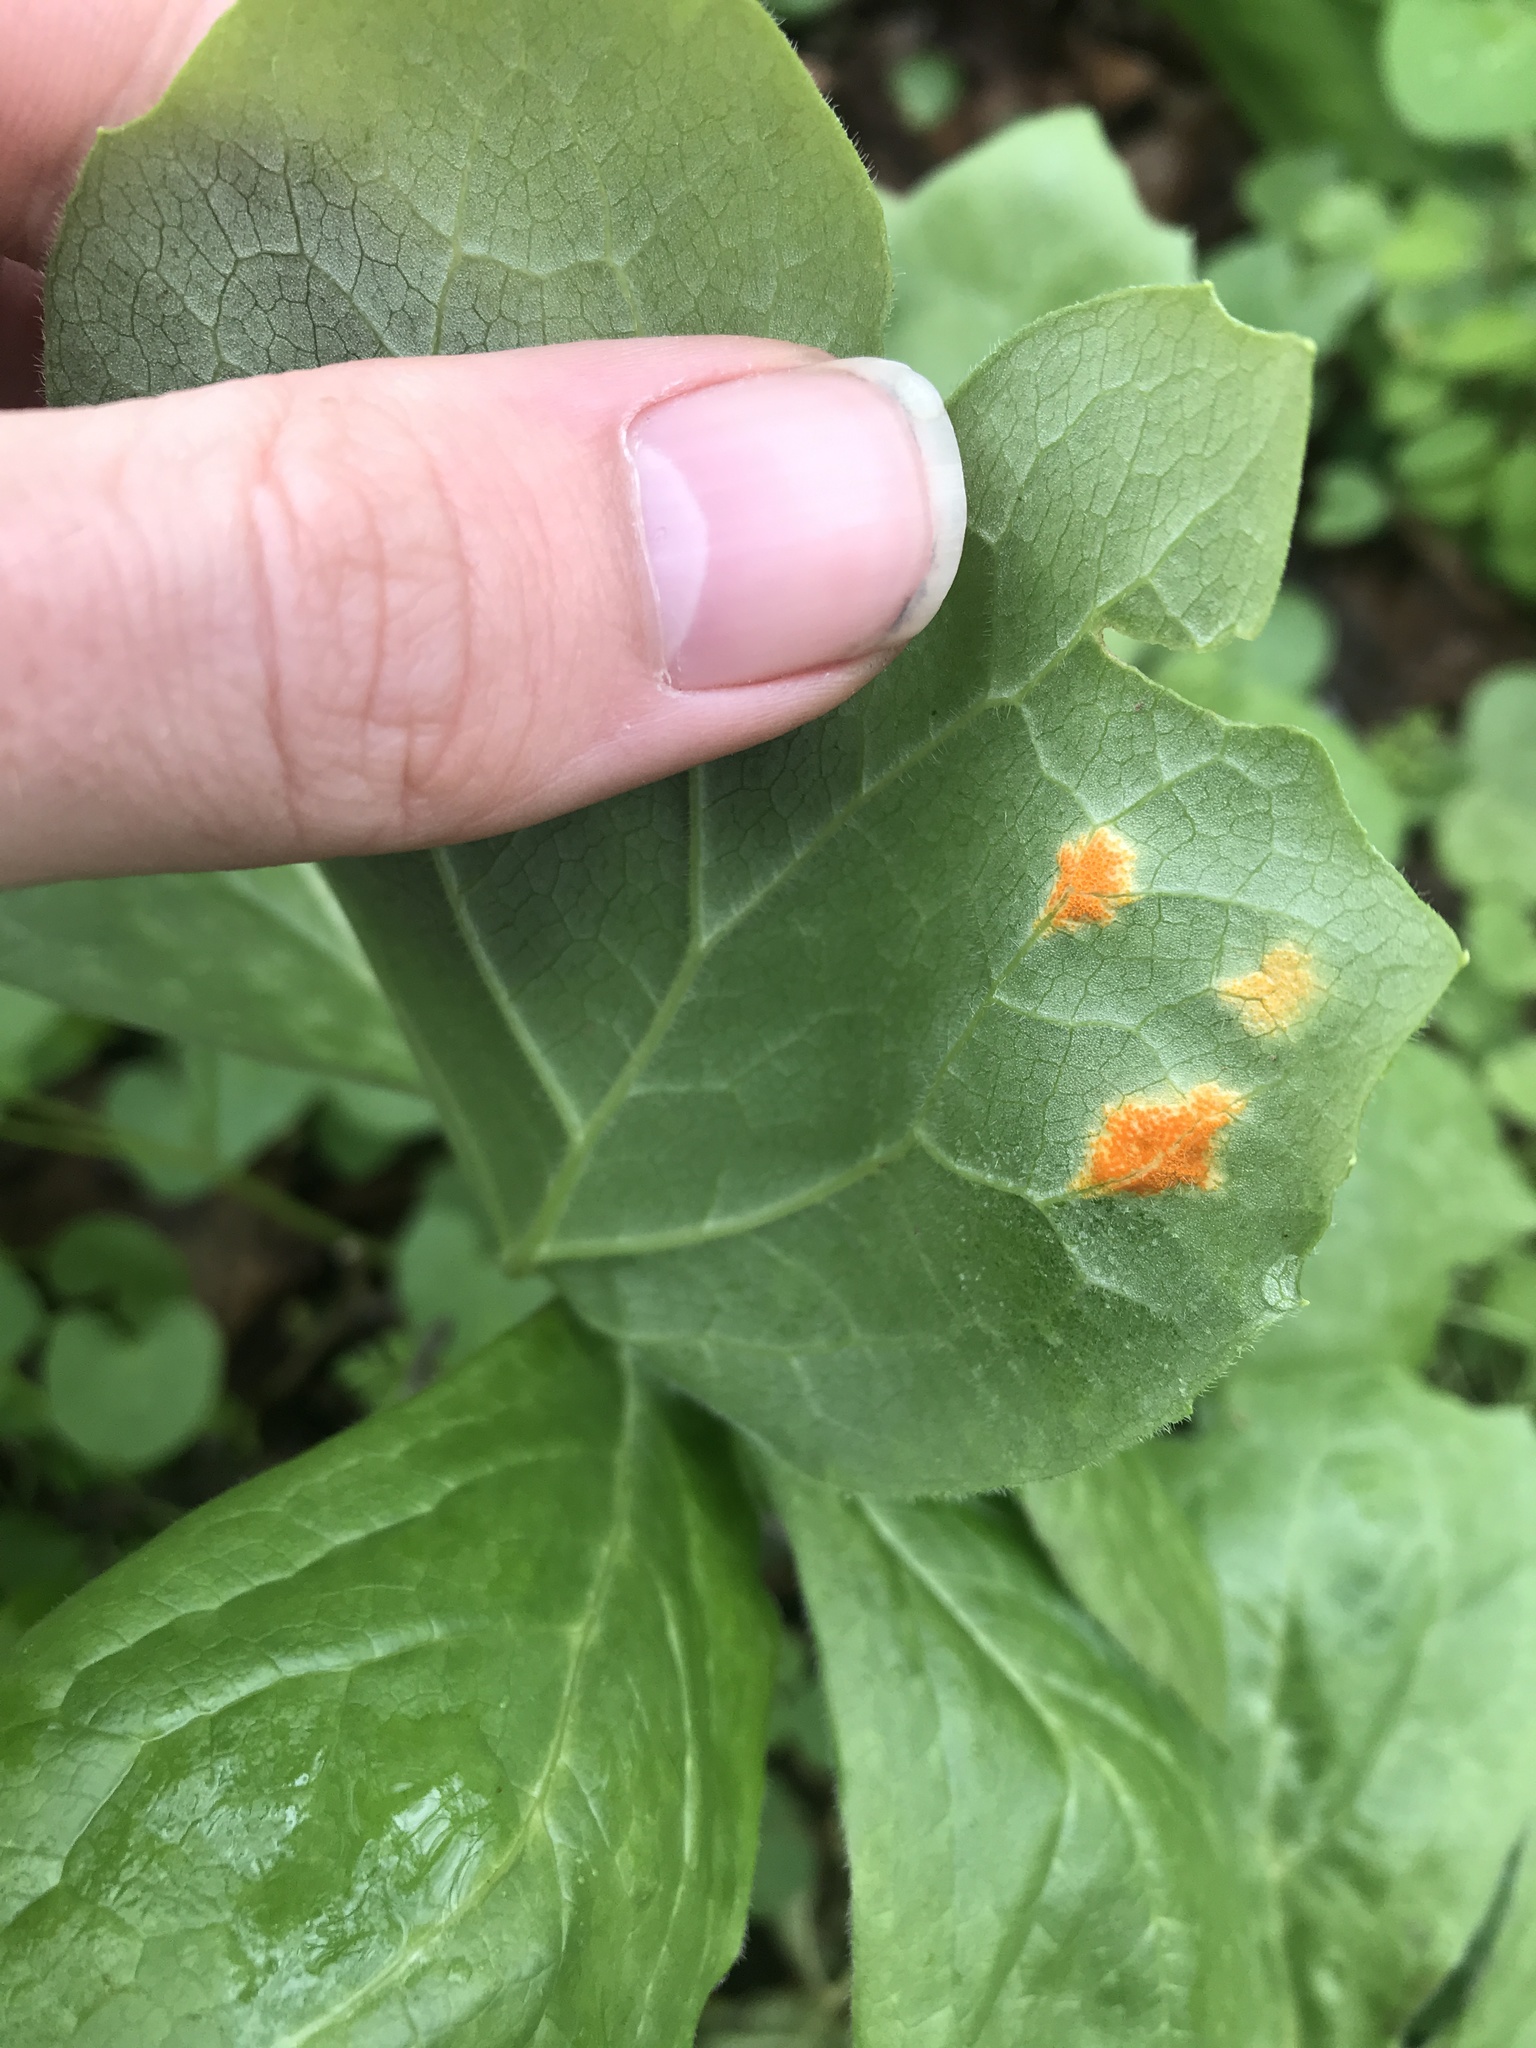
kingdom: Fungi
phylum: Basidiomycota
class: Pucciniomycetes
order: Pucciniales
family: Pucciniaceae
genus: Puccinia
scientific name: Puccinia podophylli
